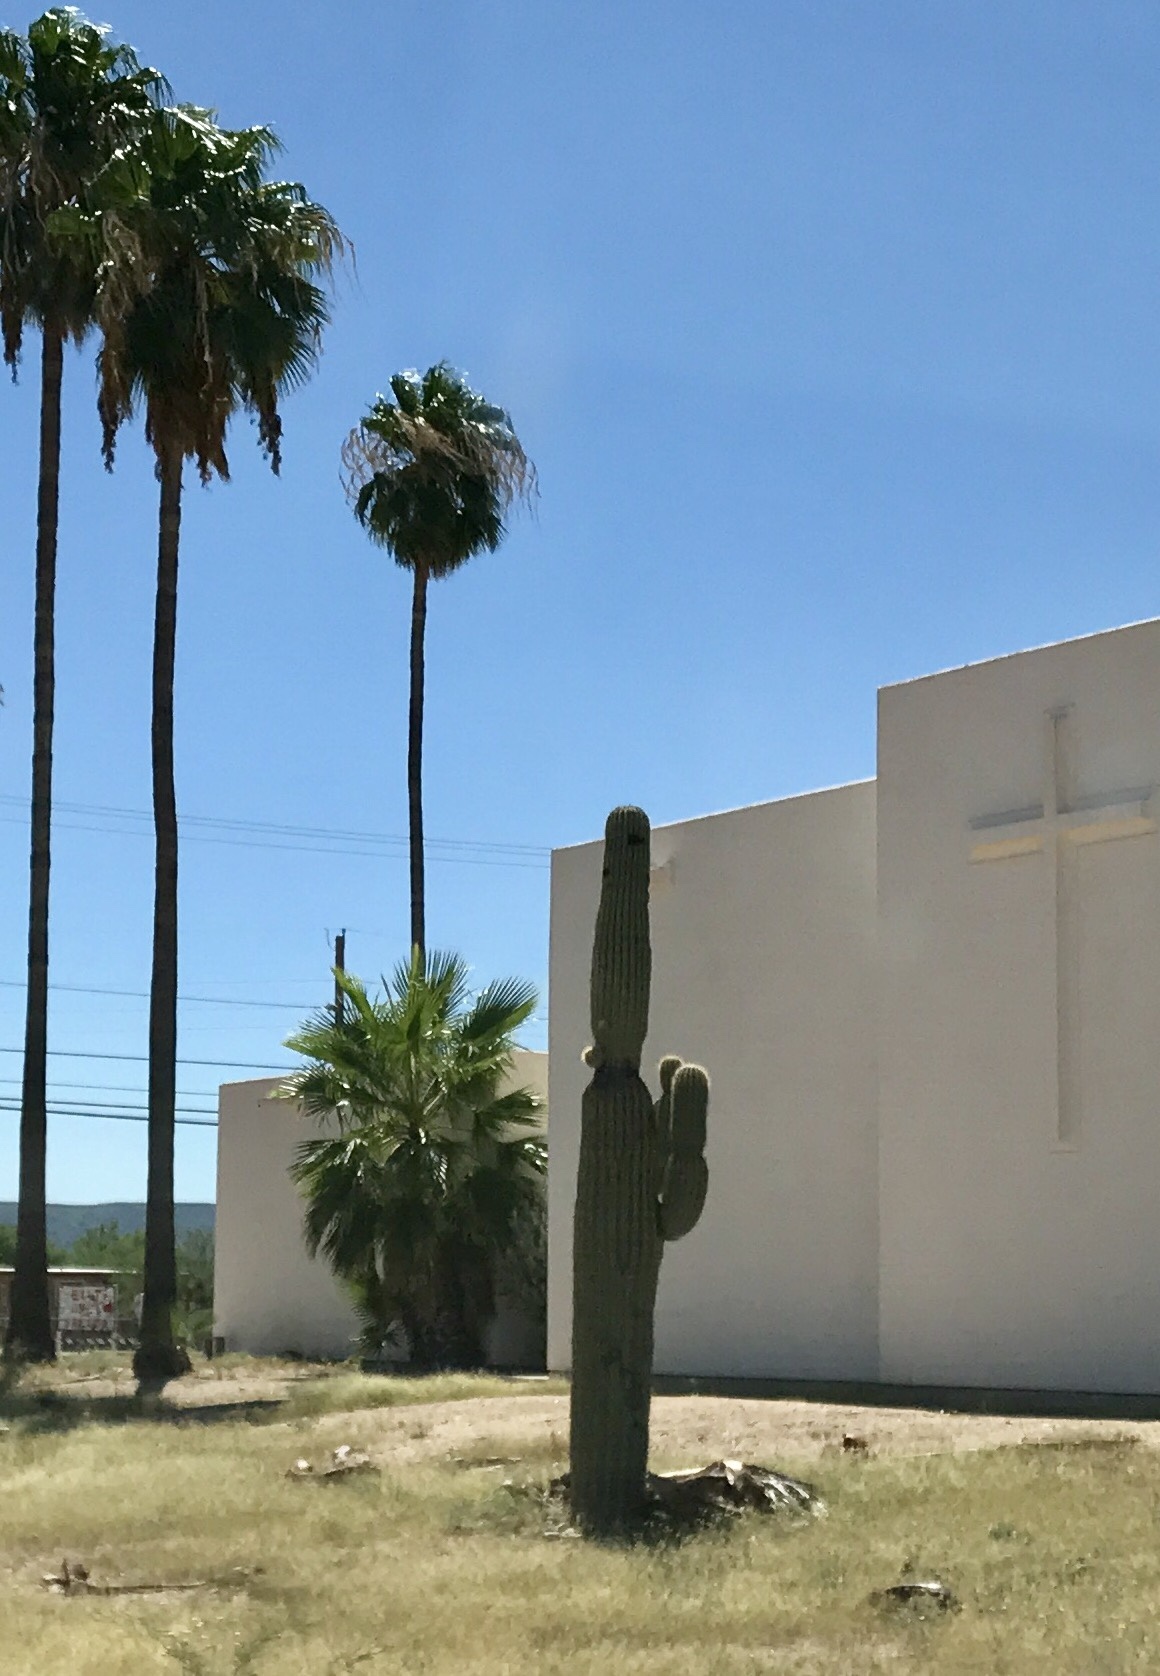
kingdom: Plantae
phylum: Tracheophyta
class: Magnoliopsida
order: Caryophyllales
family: Cactaceae
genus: Carnegiea
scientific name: Carnegiea gigantea
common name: Saguaro
